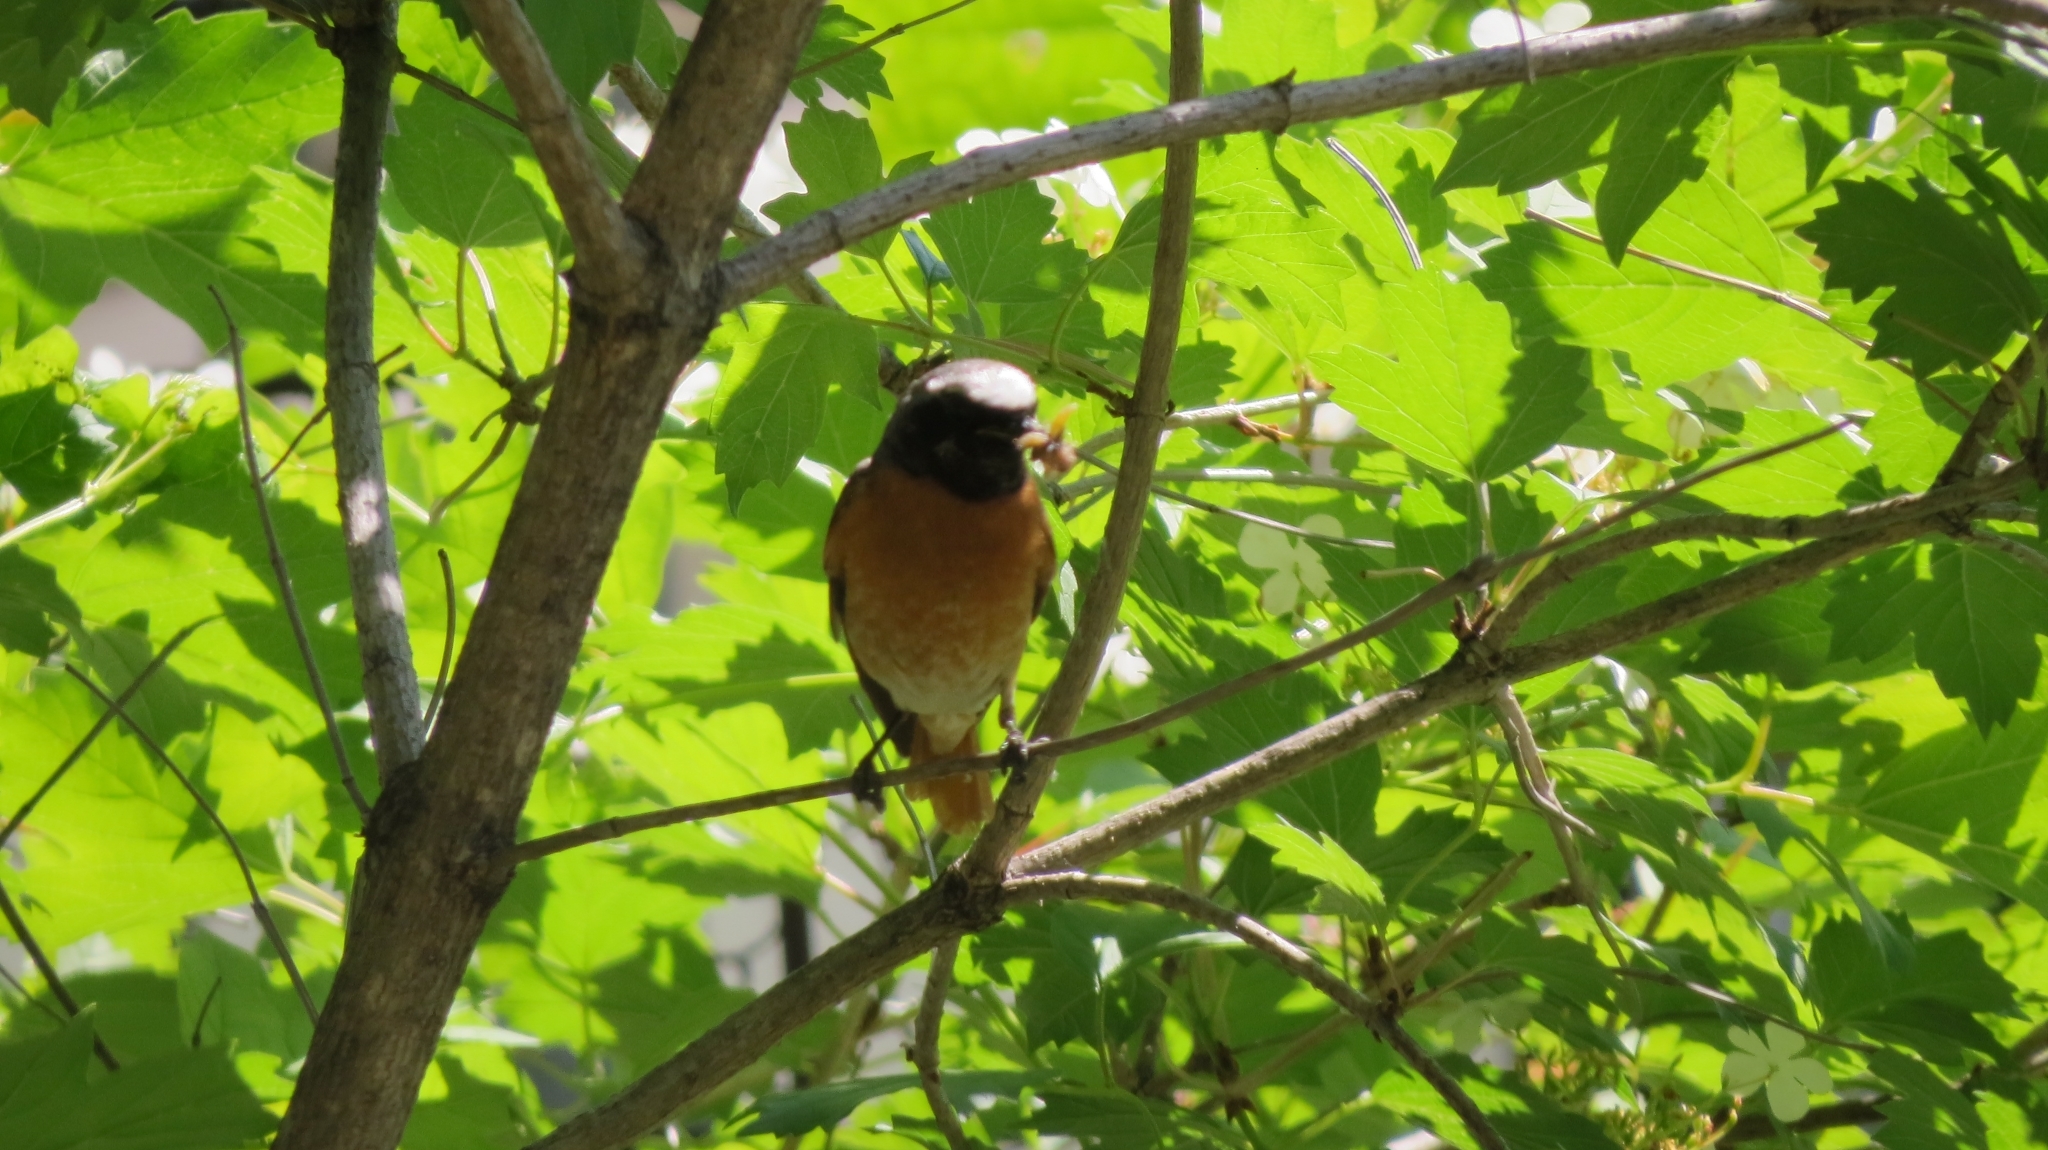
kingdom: Animalia
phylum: Chordata
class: Aves
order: Passeriformes
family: Muscicapidae
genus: Phoenicurus
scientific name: Phoenicurus phoenicurus
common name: Common redstart
